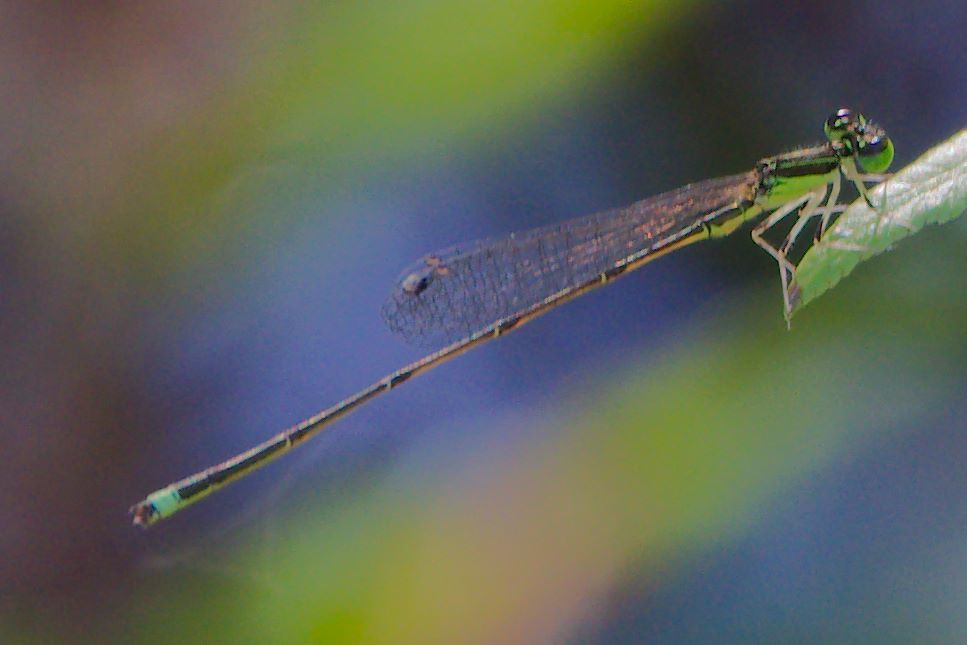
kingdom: Animalia
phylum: Arthropoda
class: Insecta
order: Odonata
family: Coenagrionidae
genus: Ischnura
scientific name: Ischnura prognata
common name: Furtive forktail
